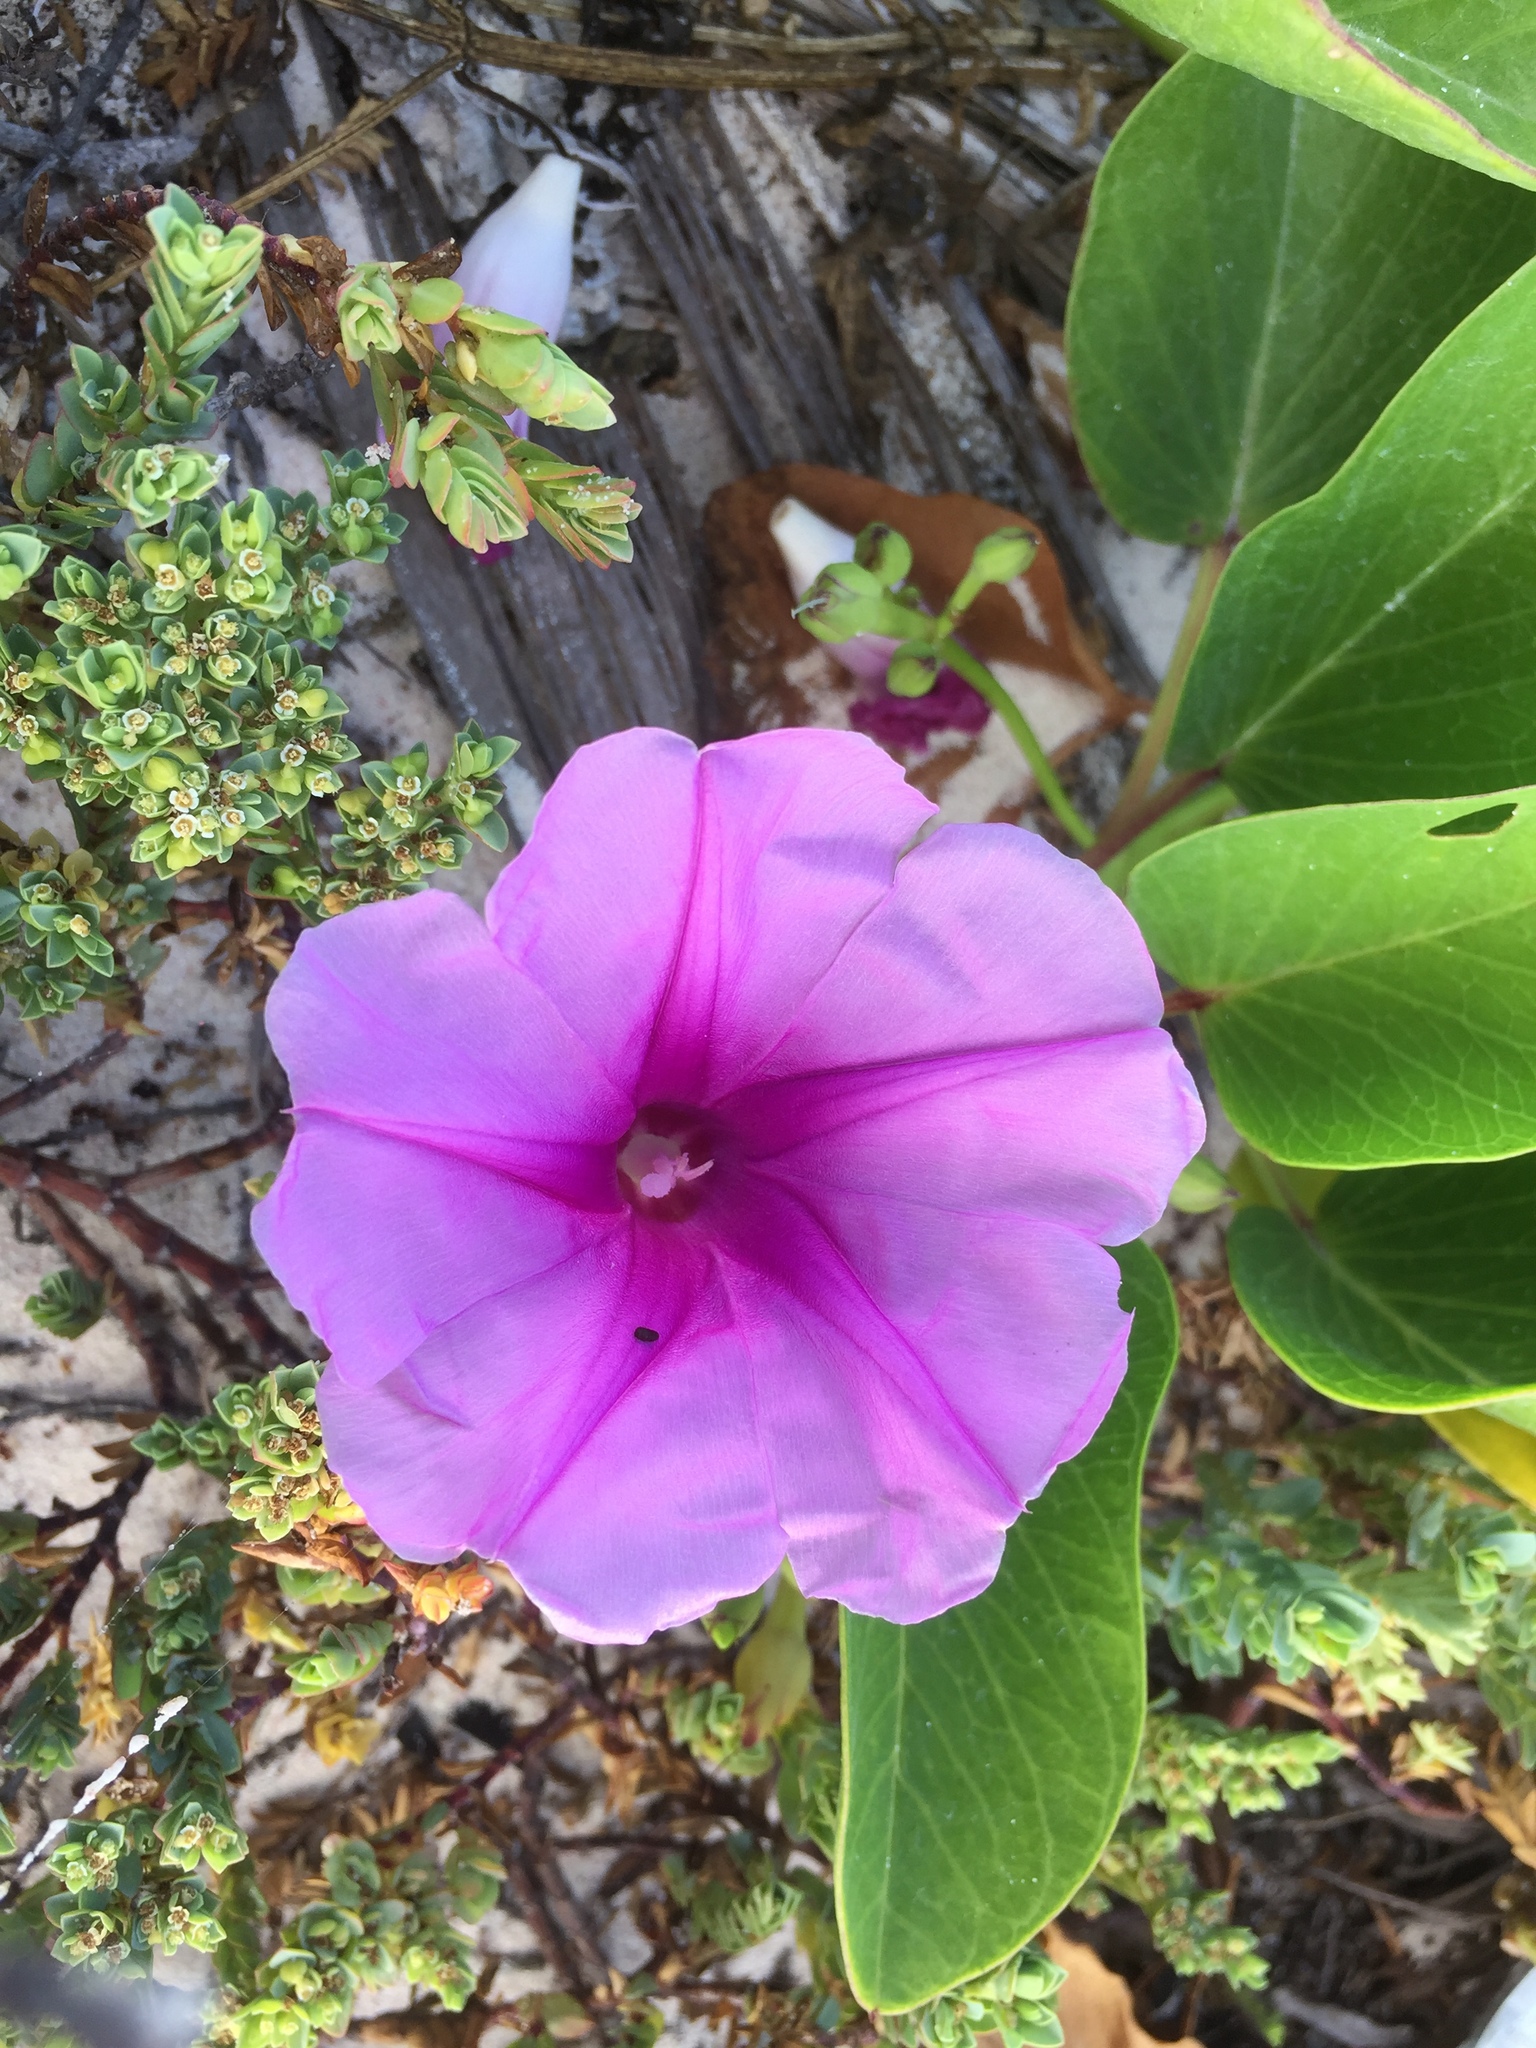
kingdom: Plantae
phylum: Tracheophyta
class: Magnoliopsida
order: Solanales
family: Convolvulaceae
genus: Ipomoea
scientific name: Ipomoea pes-caprae
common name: Beach morning glory
